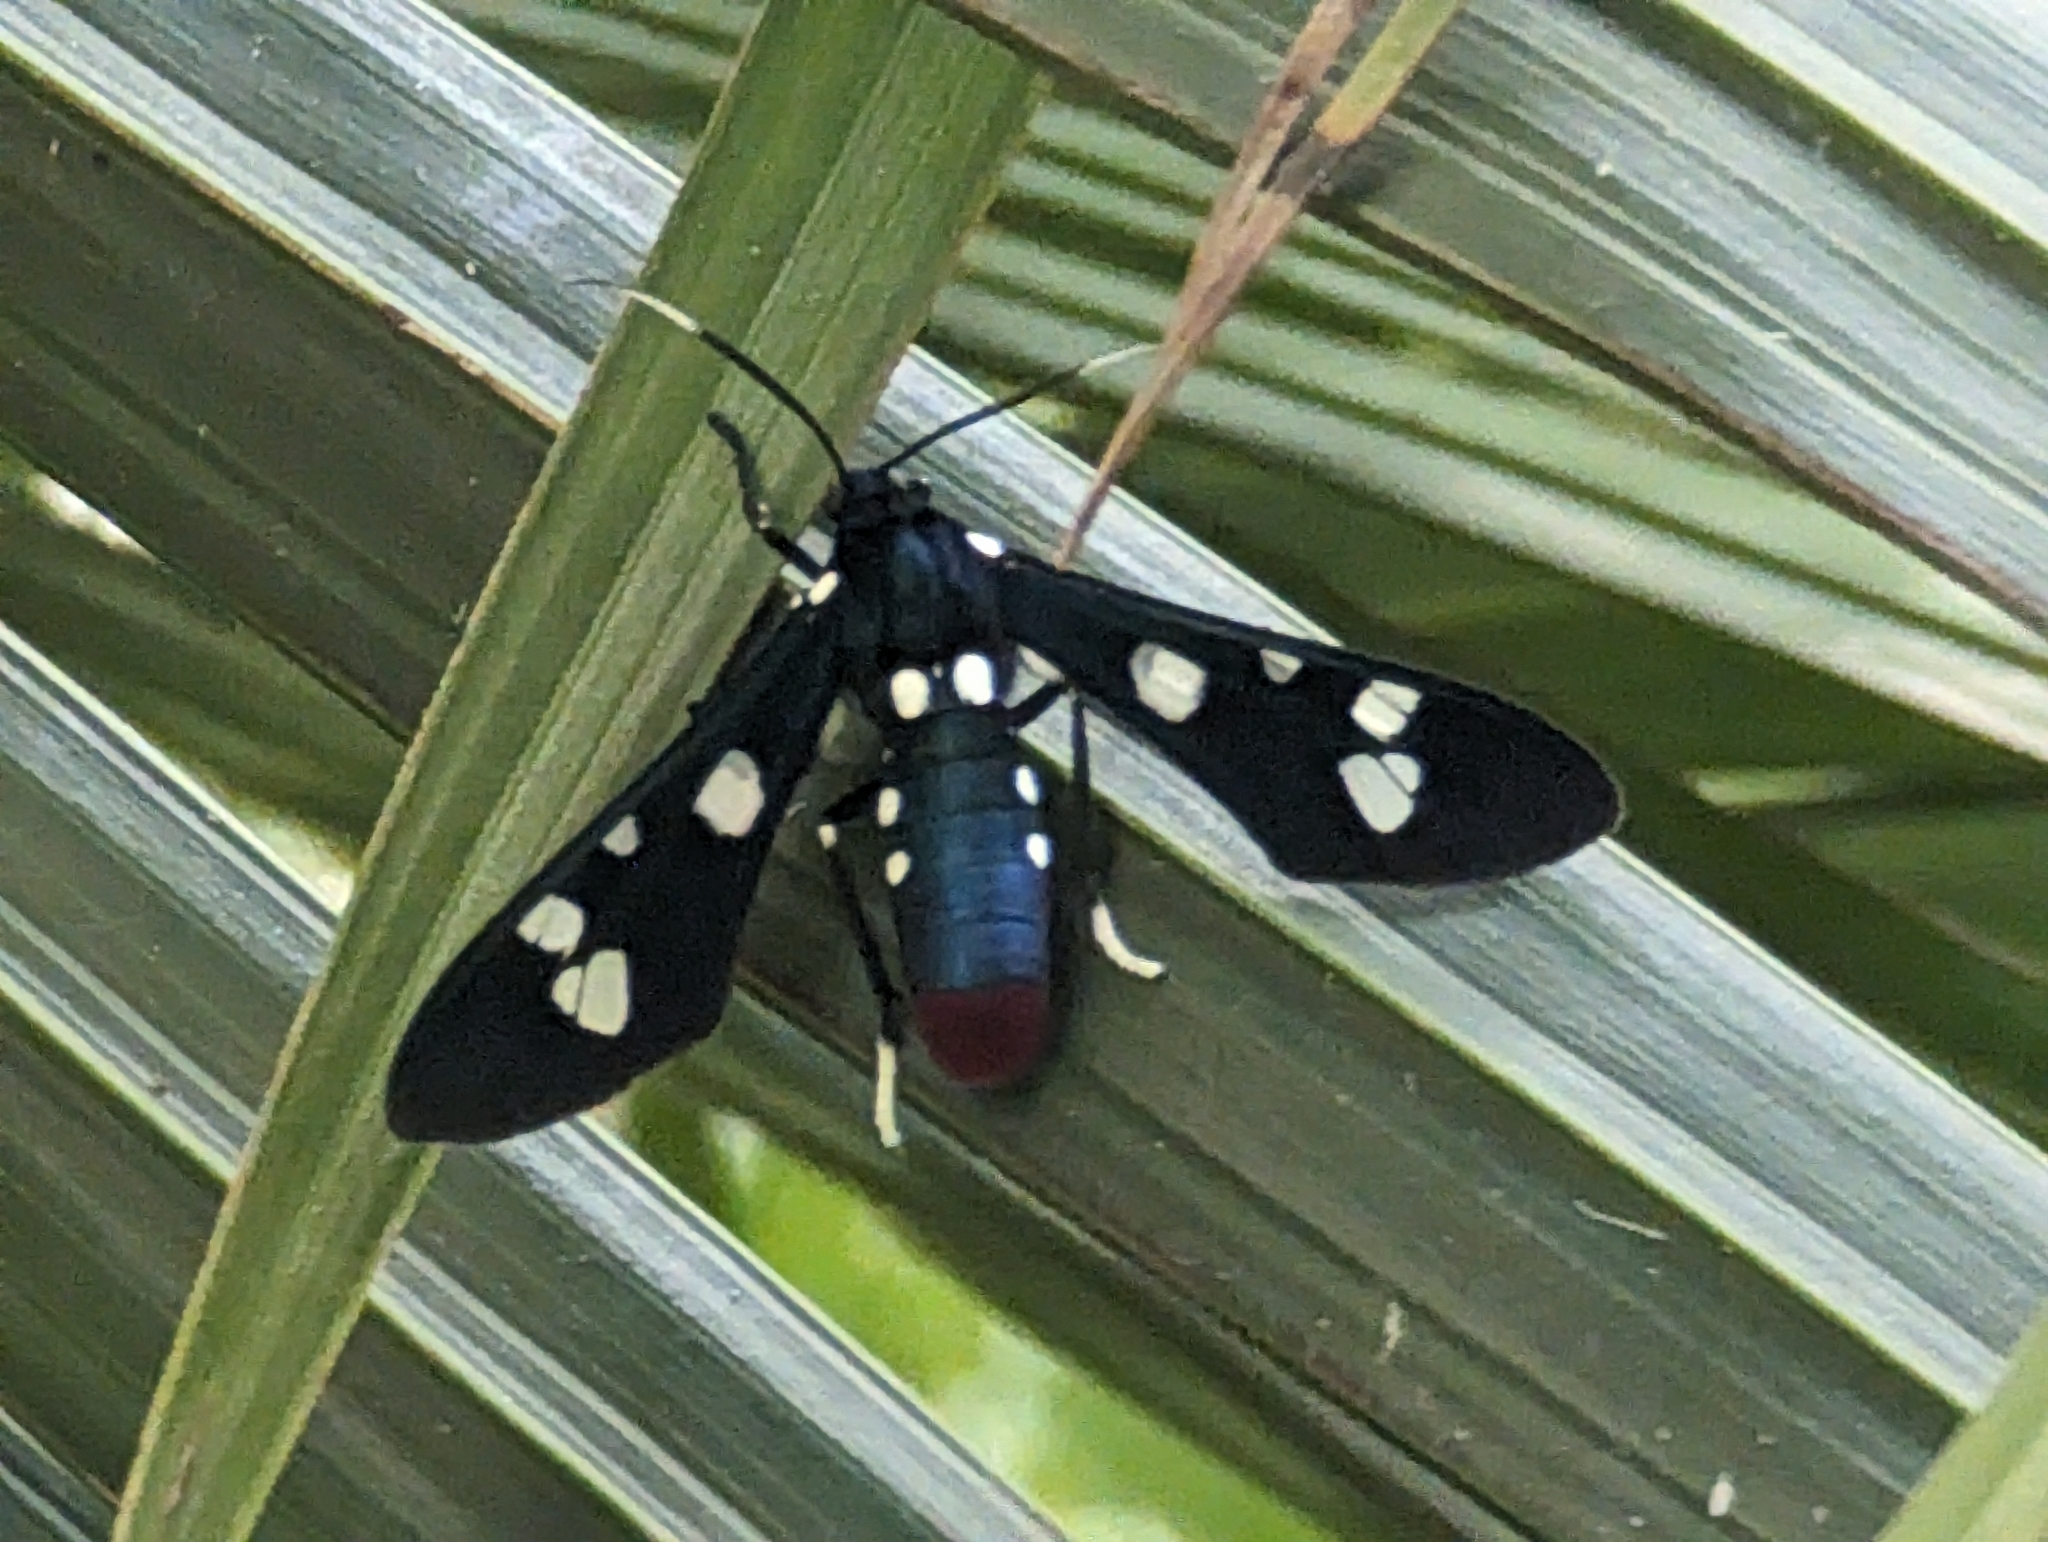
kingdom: Animalia
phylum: Arthropoda
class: Insecta
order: Lepidoptera
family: Erebidae
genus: Syntomeida
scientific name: Syntomeida epilais
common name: Polka-dot wasp moth
